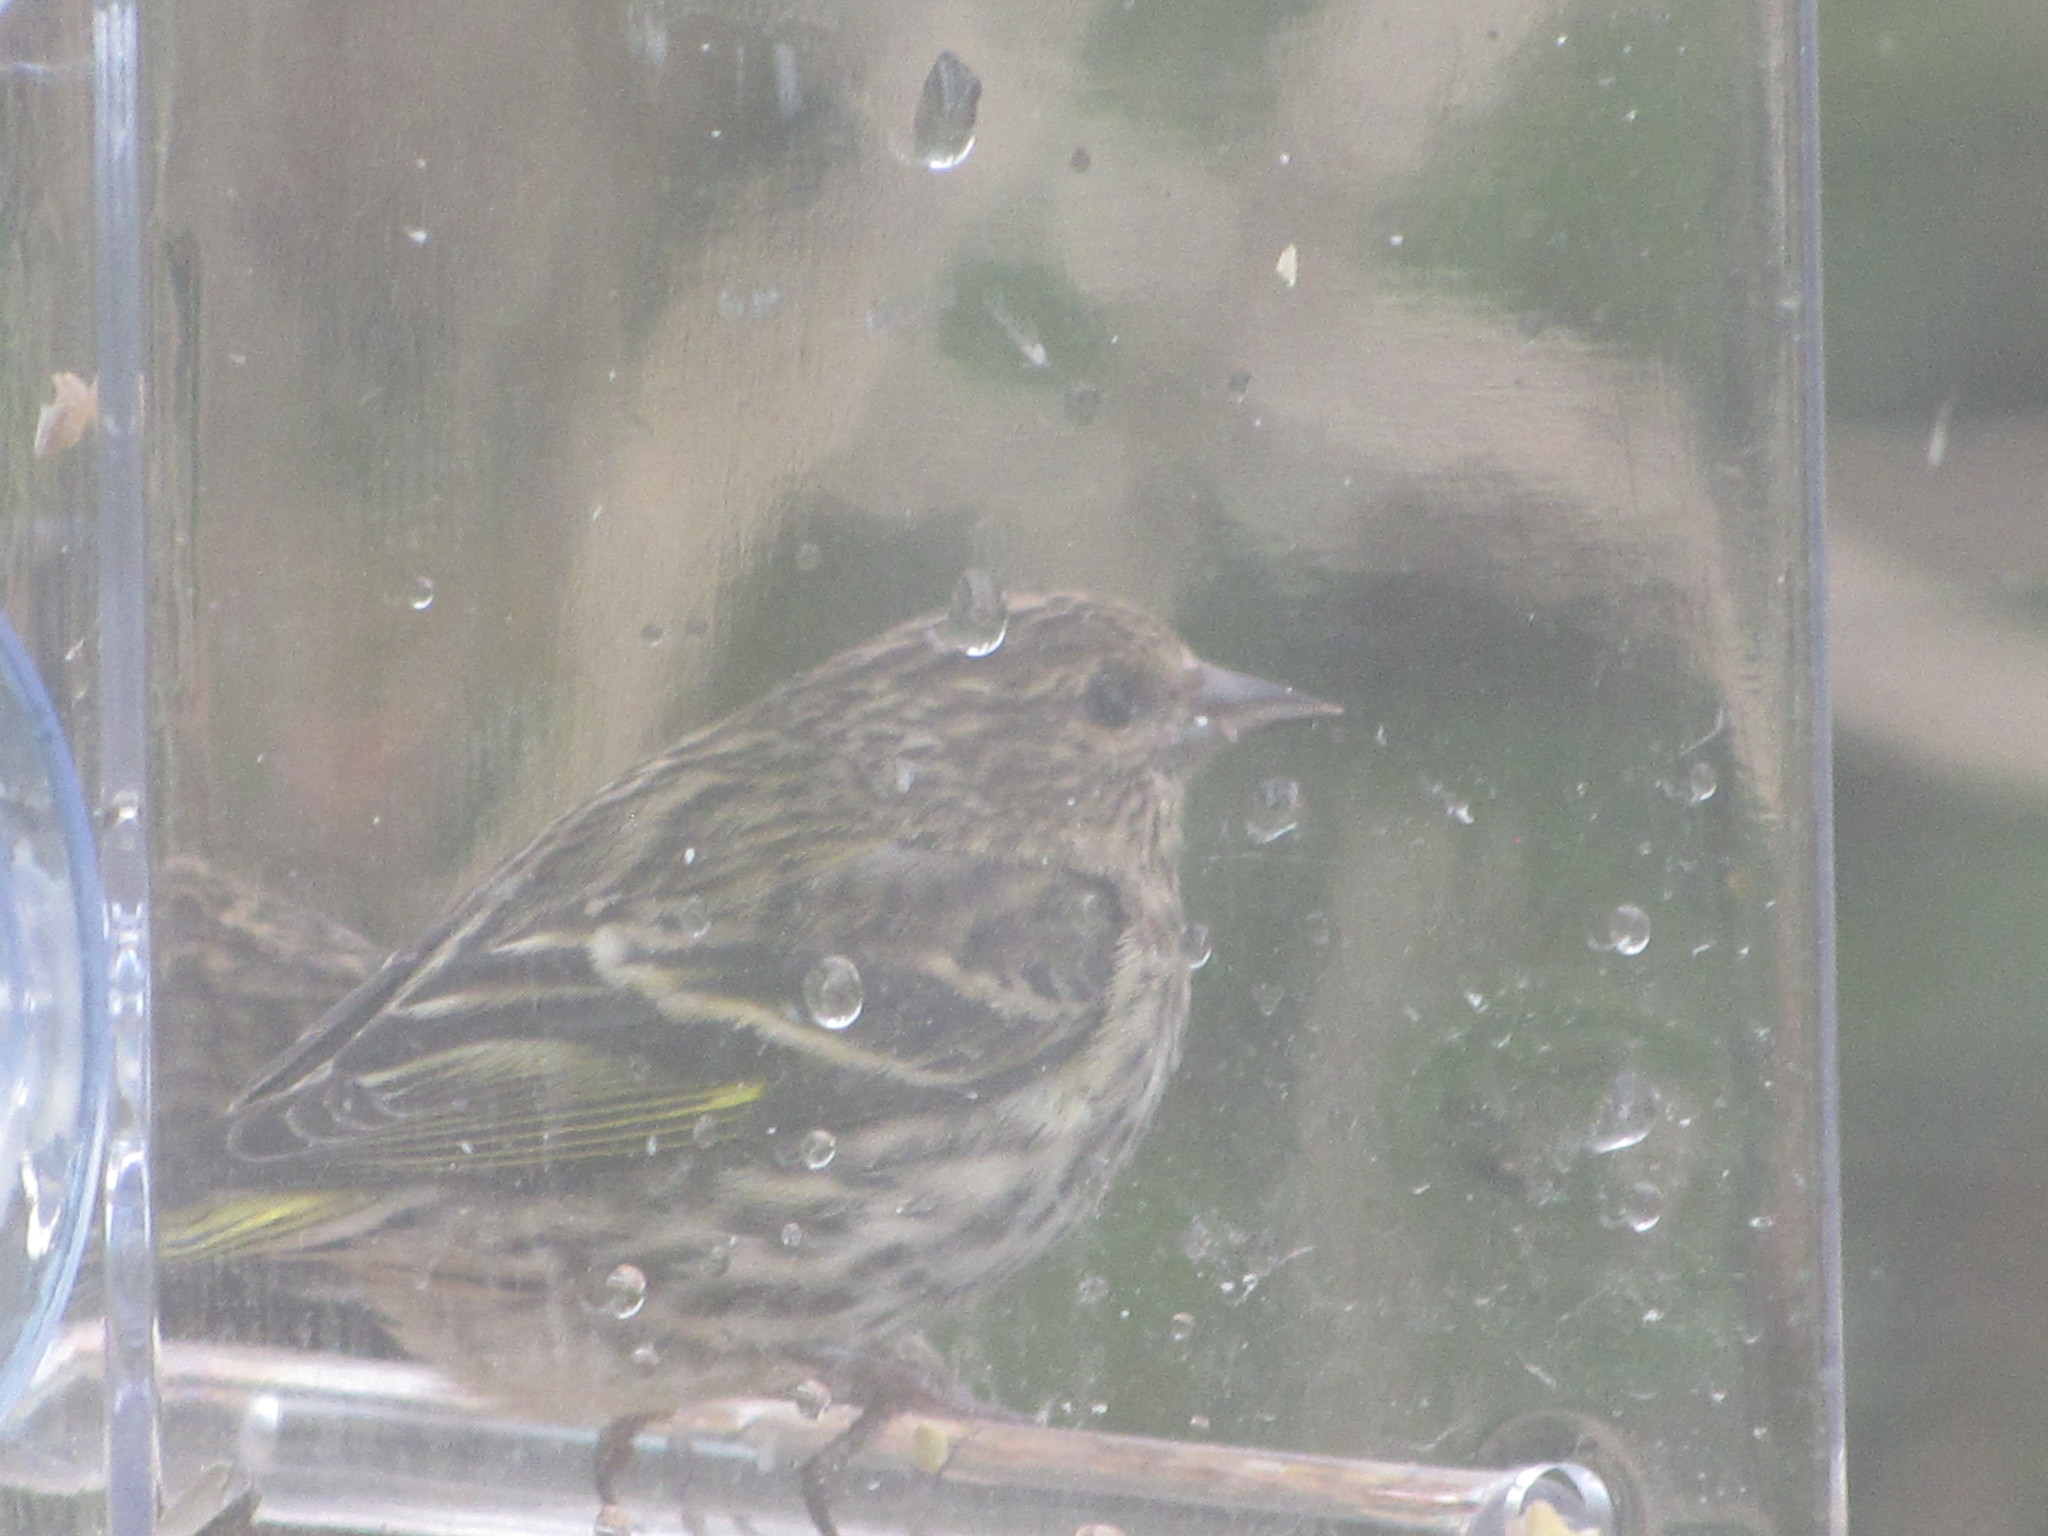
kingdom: Animalia
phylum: Chordata
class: Aves
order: Passeriformes
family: Fringillidae
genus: Spinus
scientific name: Spinus pinus
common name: Pine siskin
